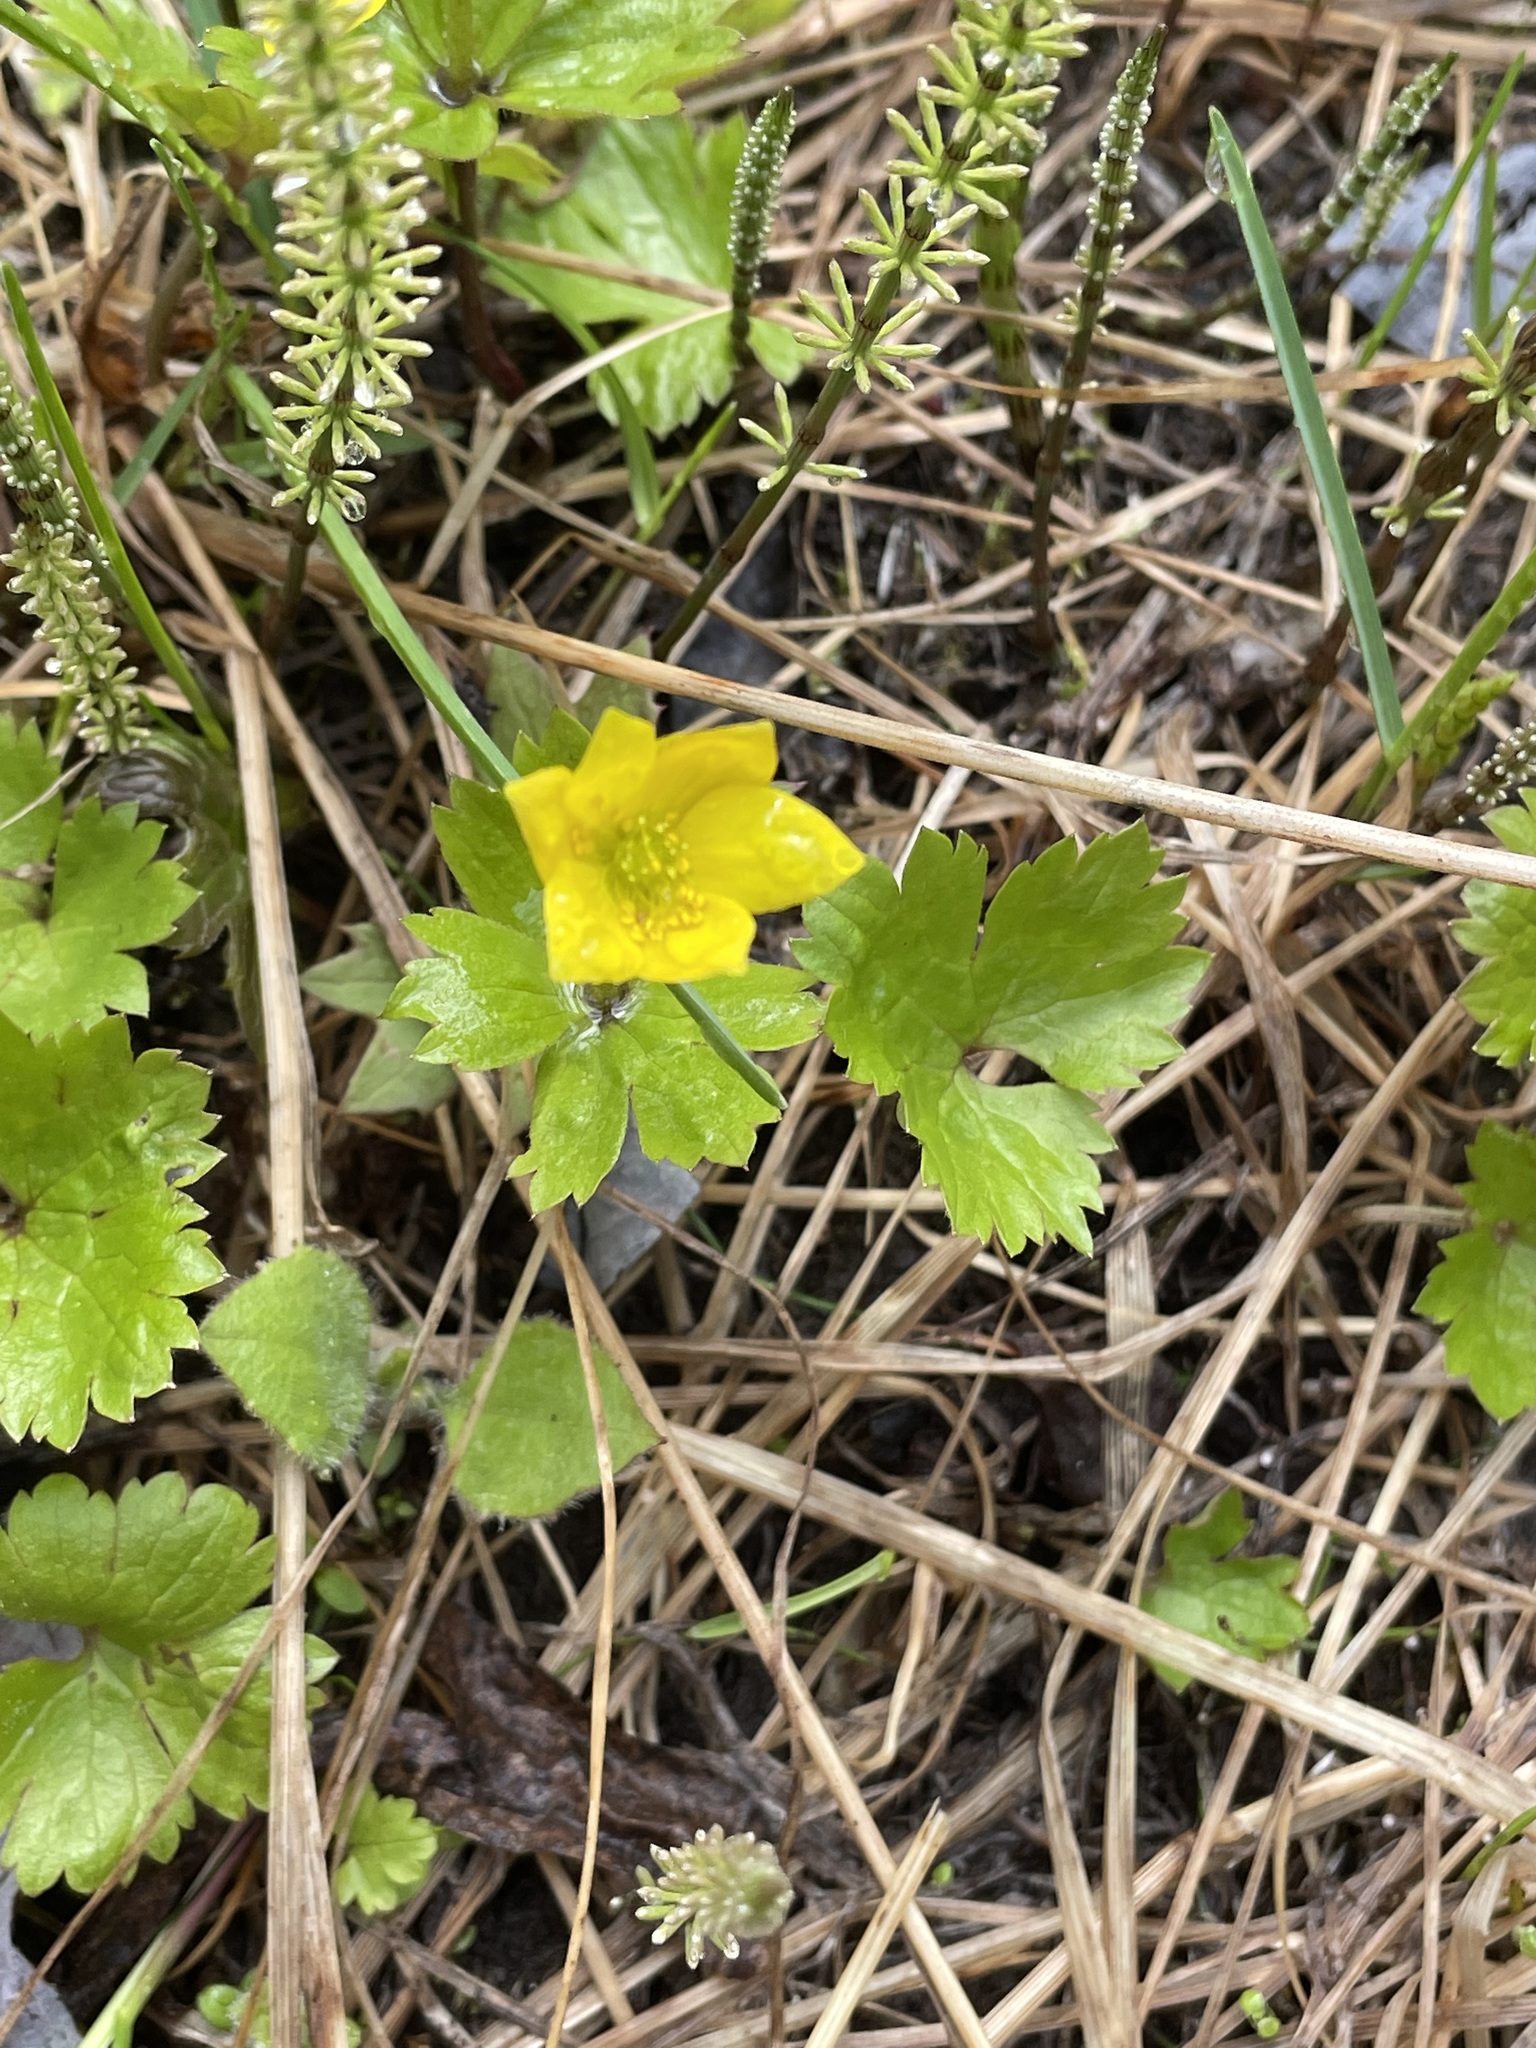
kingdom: Plantae
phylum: Tracheophyta
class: Magnoliopsida
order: Ranunculales
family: Ranunculaceae
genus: Anemonastrum
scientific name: Anemonastrum richardsonii
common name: Richardson's anemone
